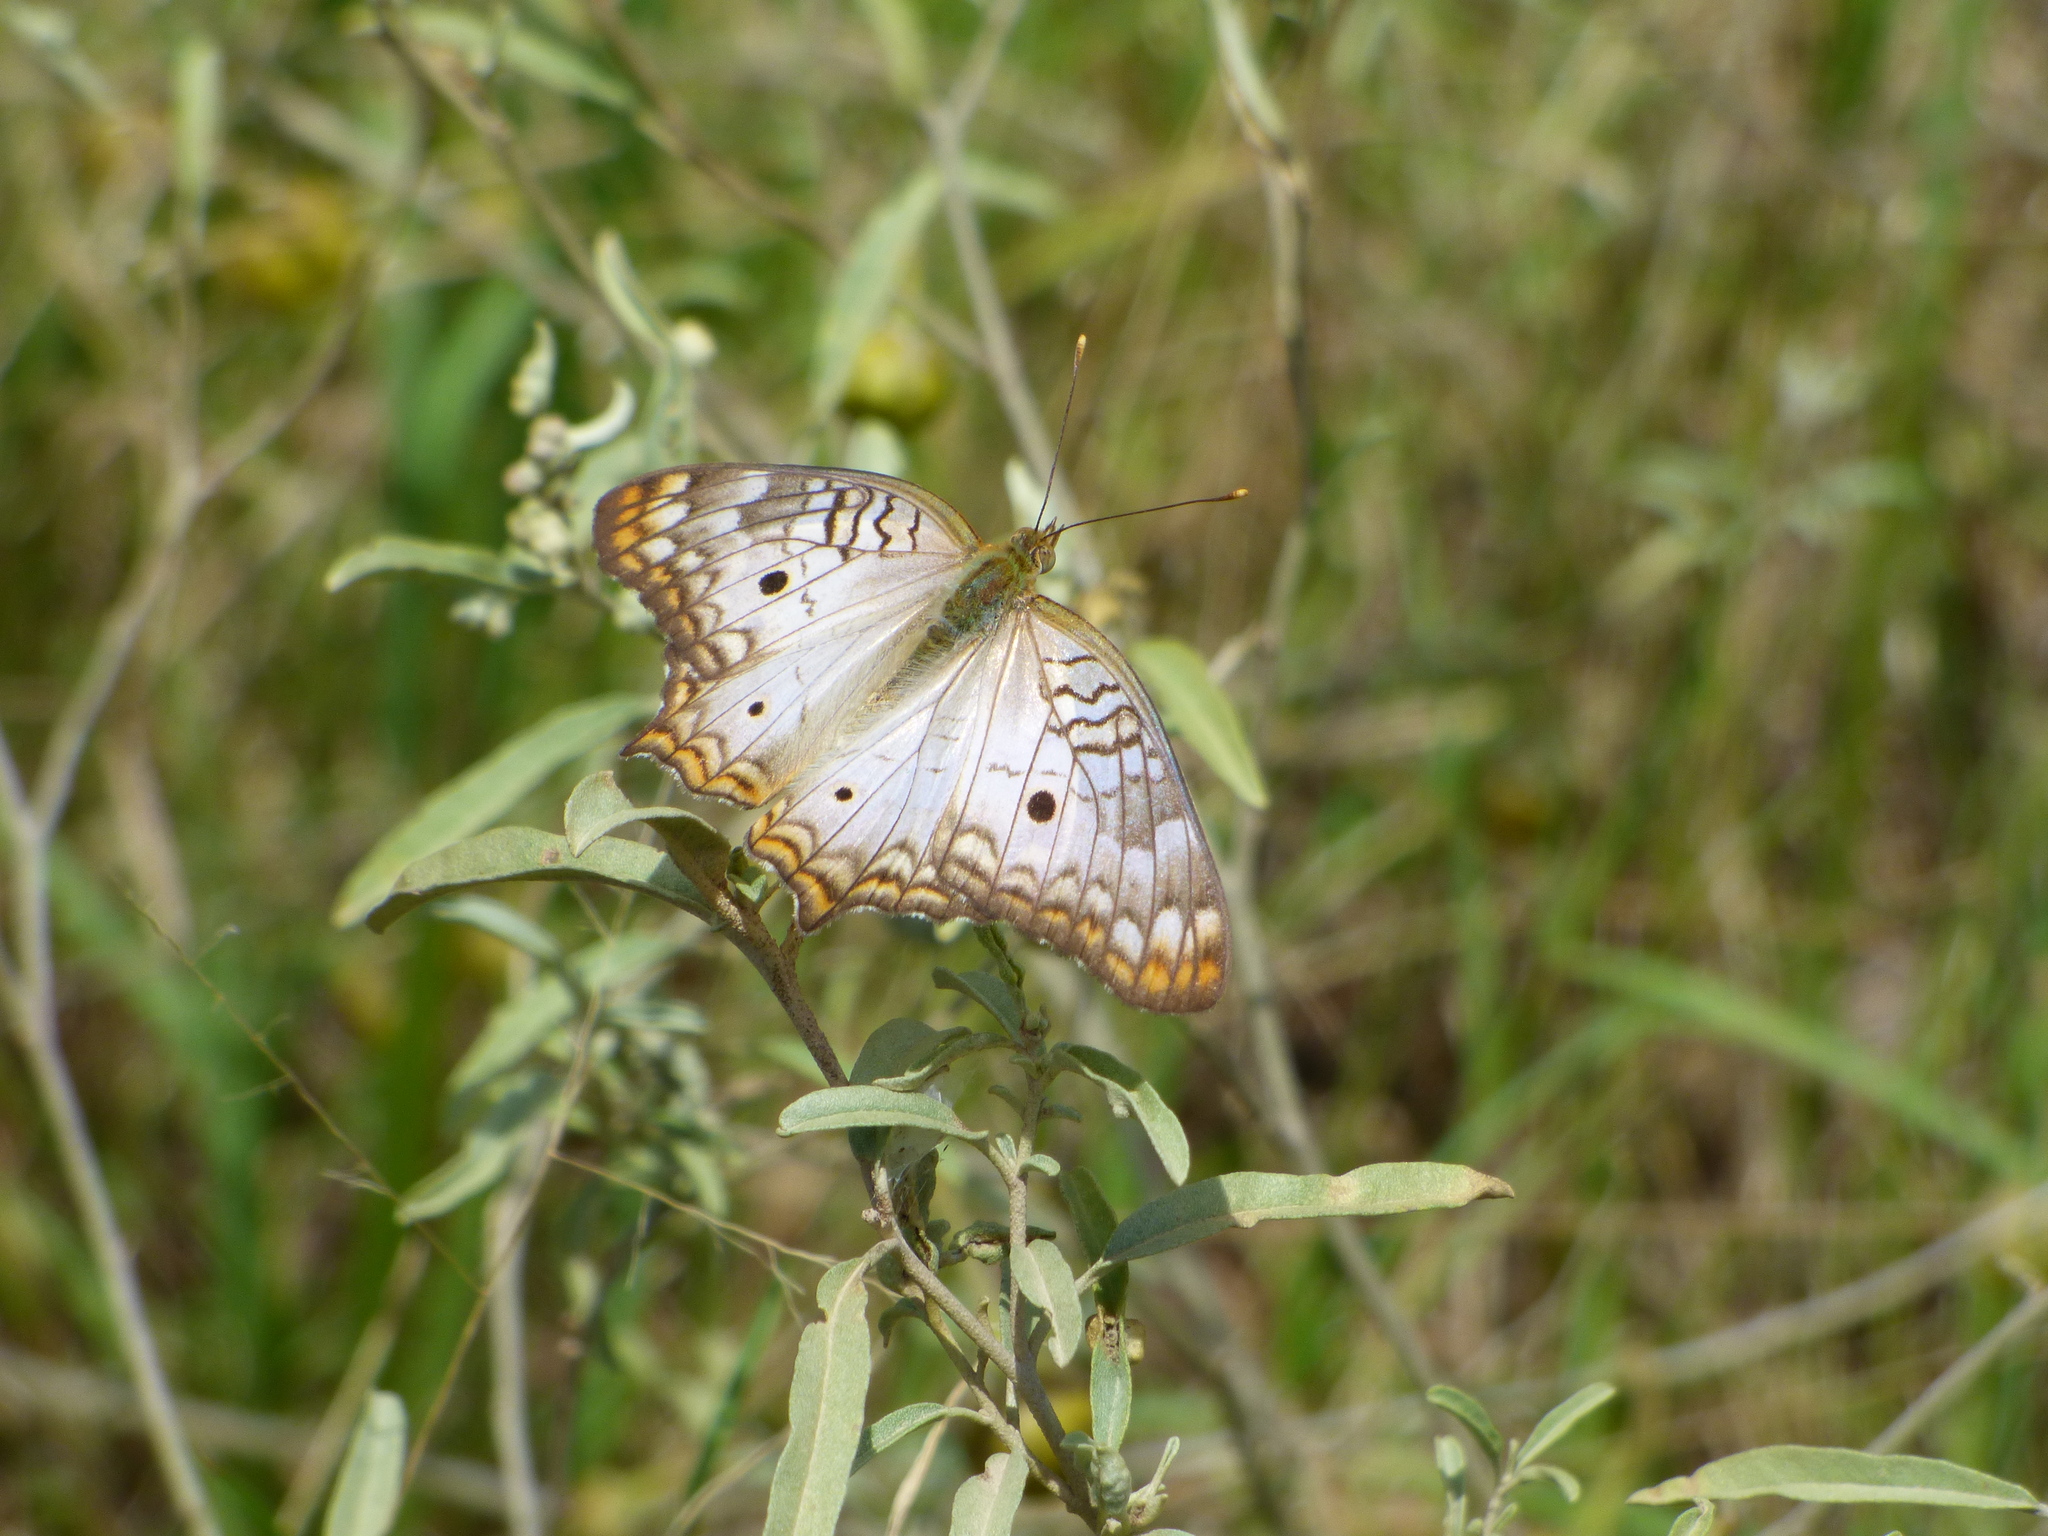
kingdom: Animalia
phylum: Arthropoda
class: Insecta
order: Lepidoptera
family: Nymphalidae
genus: Anartia
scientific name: Anartia jatrophae
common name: White peacock
